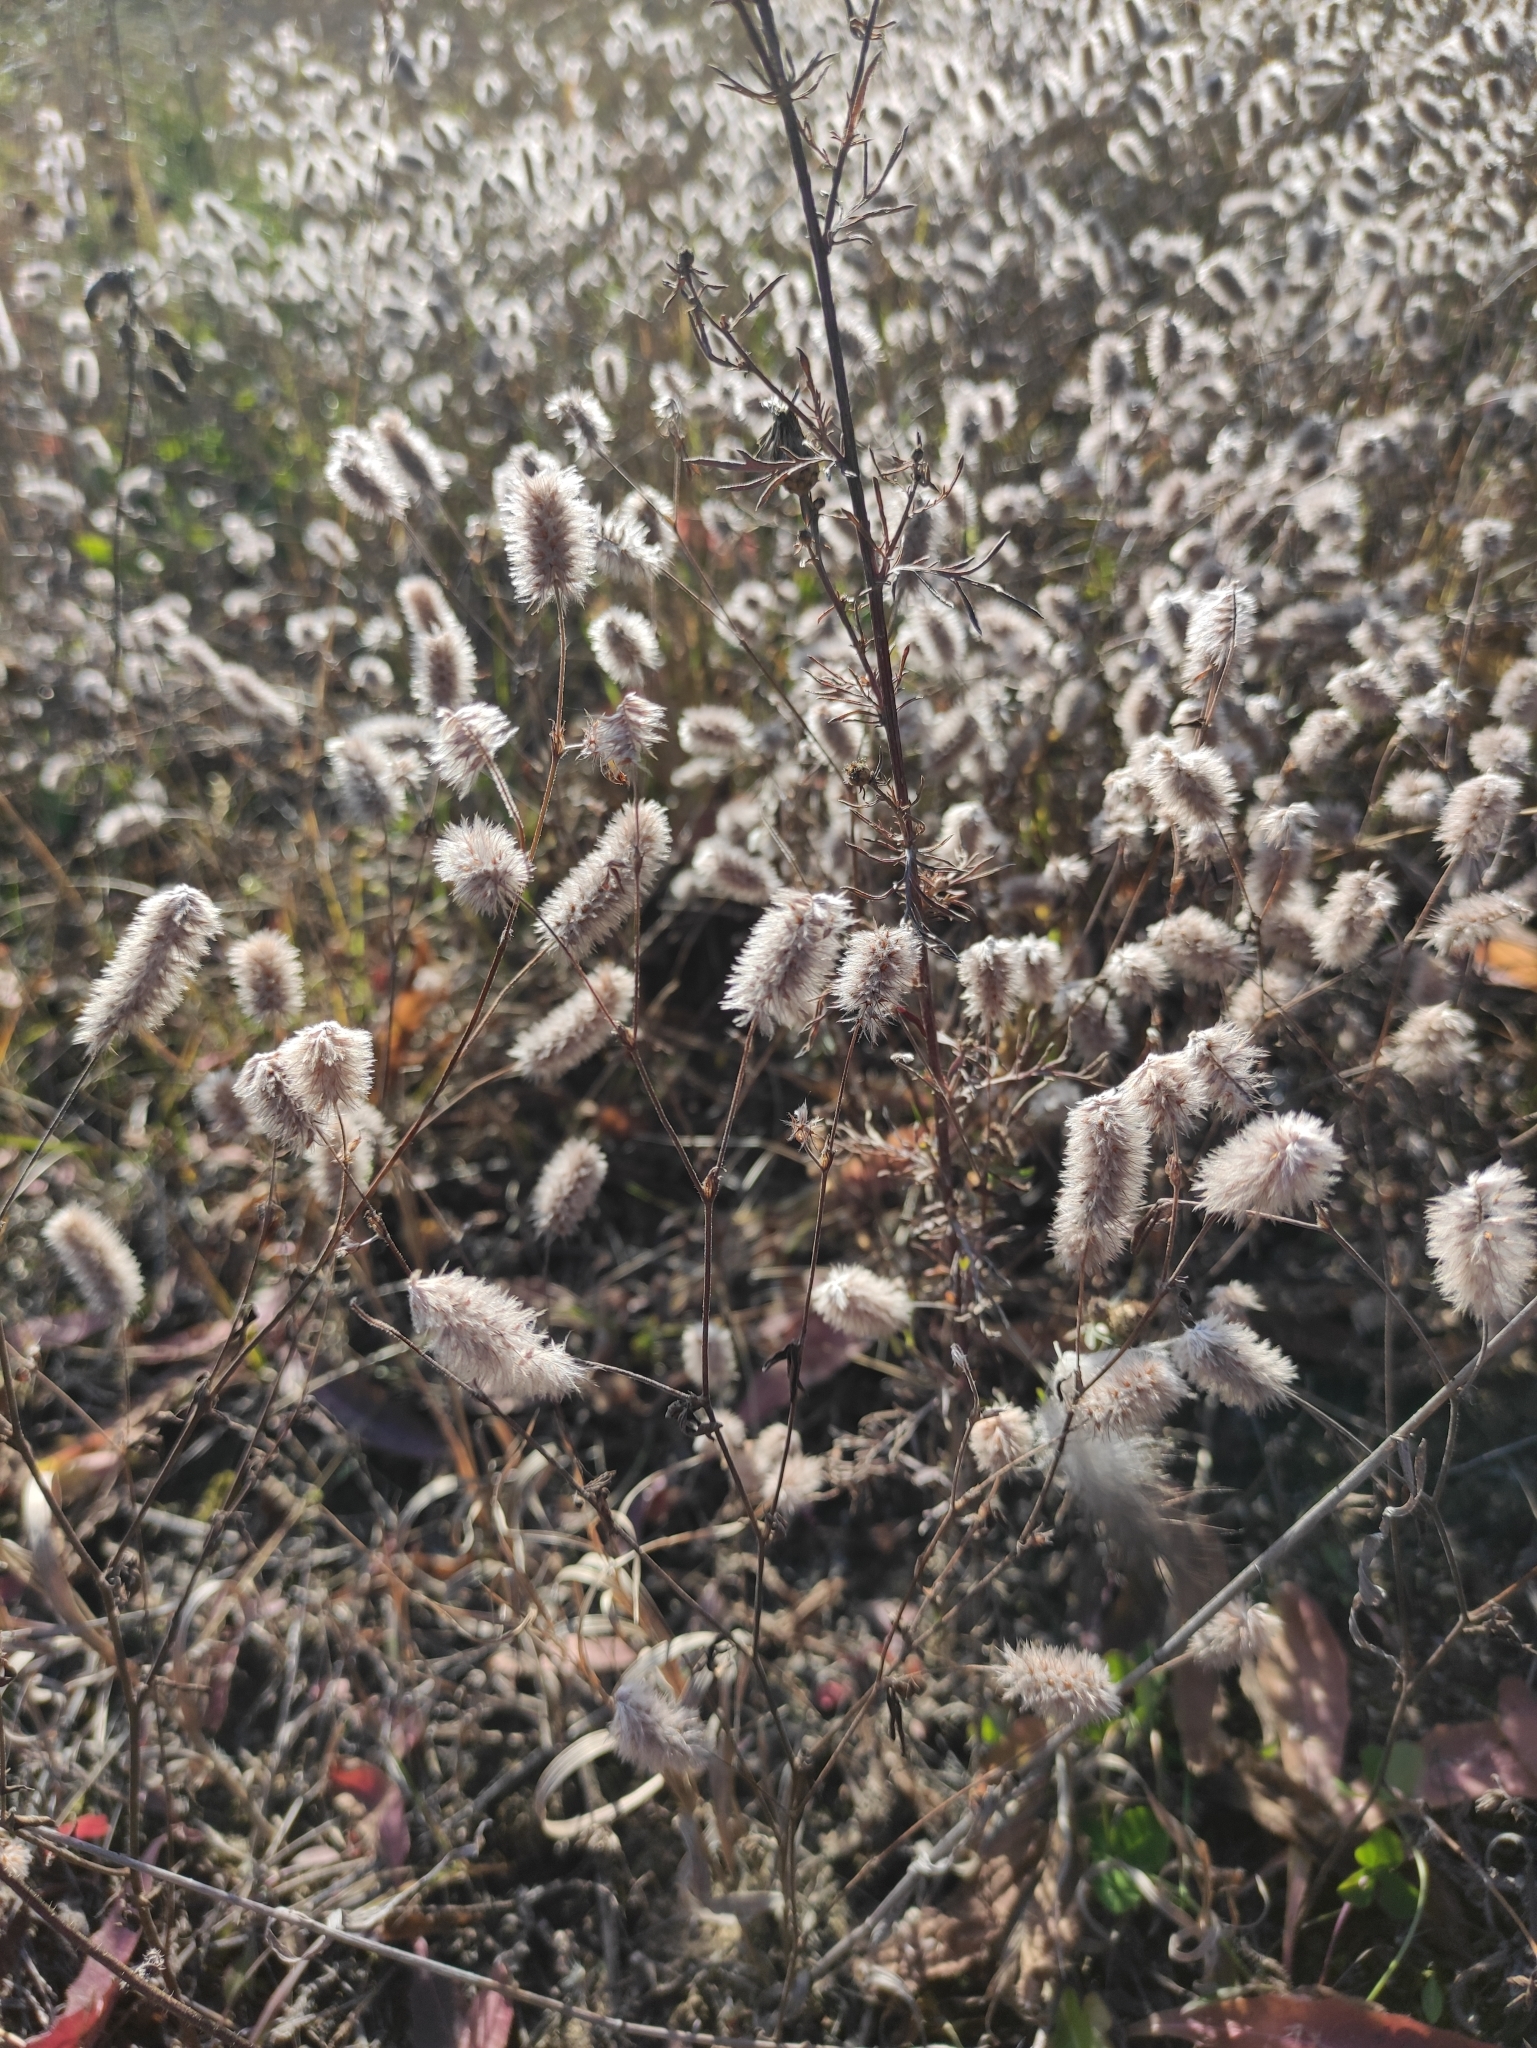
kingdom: Plantae
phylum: Tracheophyta
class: Magnoliopsida
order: Fabales
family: Fabaceae
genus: Trifolium
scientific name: Trifolium arvense
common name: Hare's-foot clover
